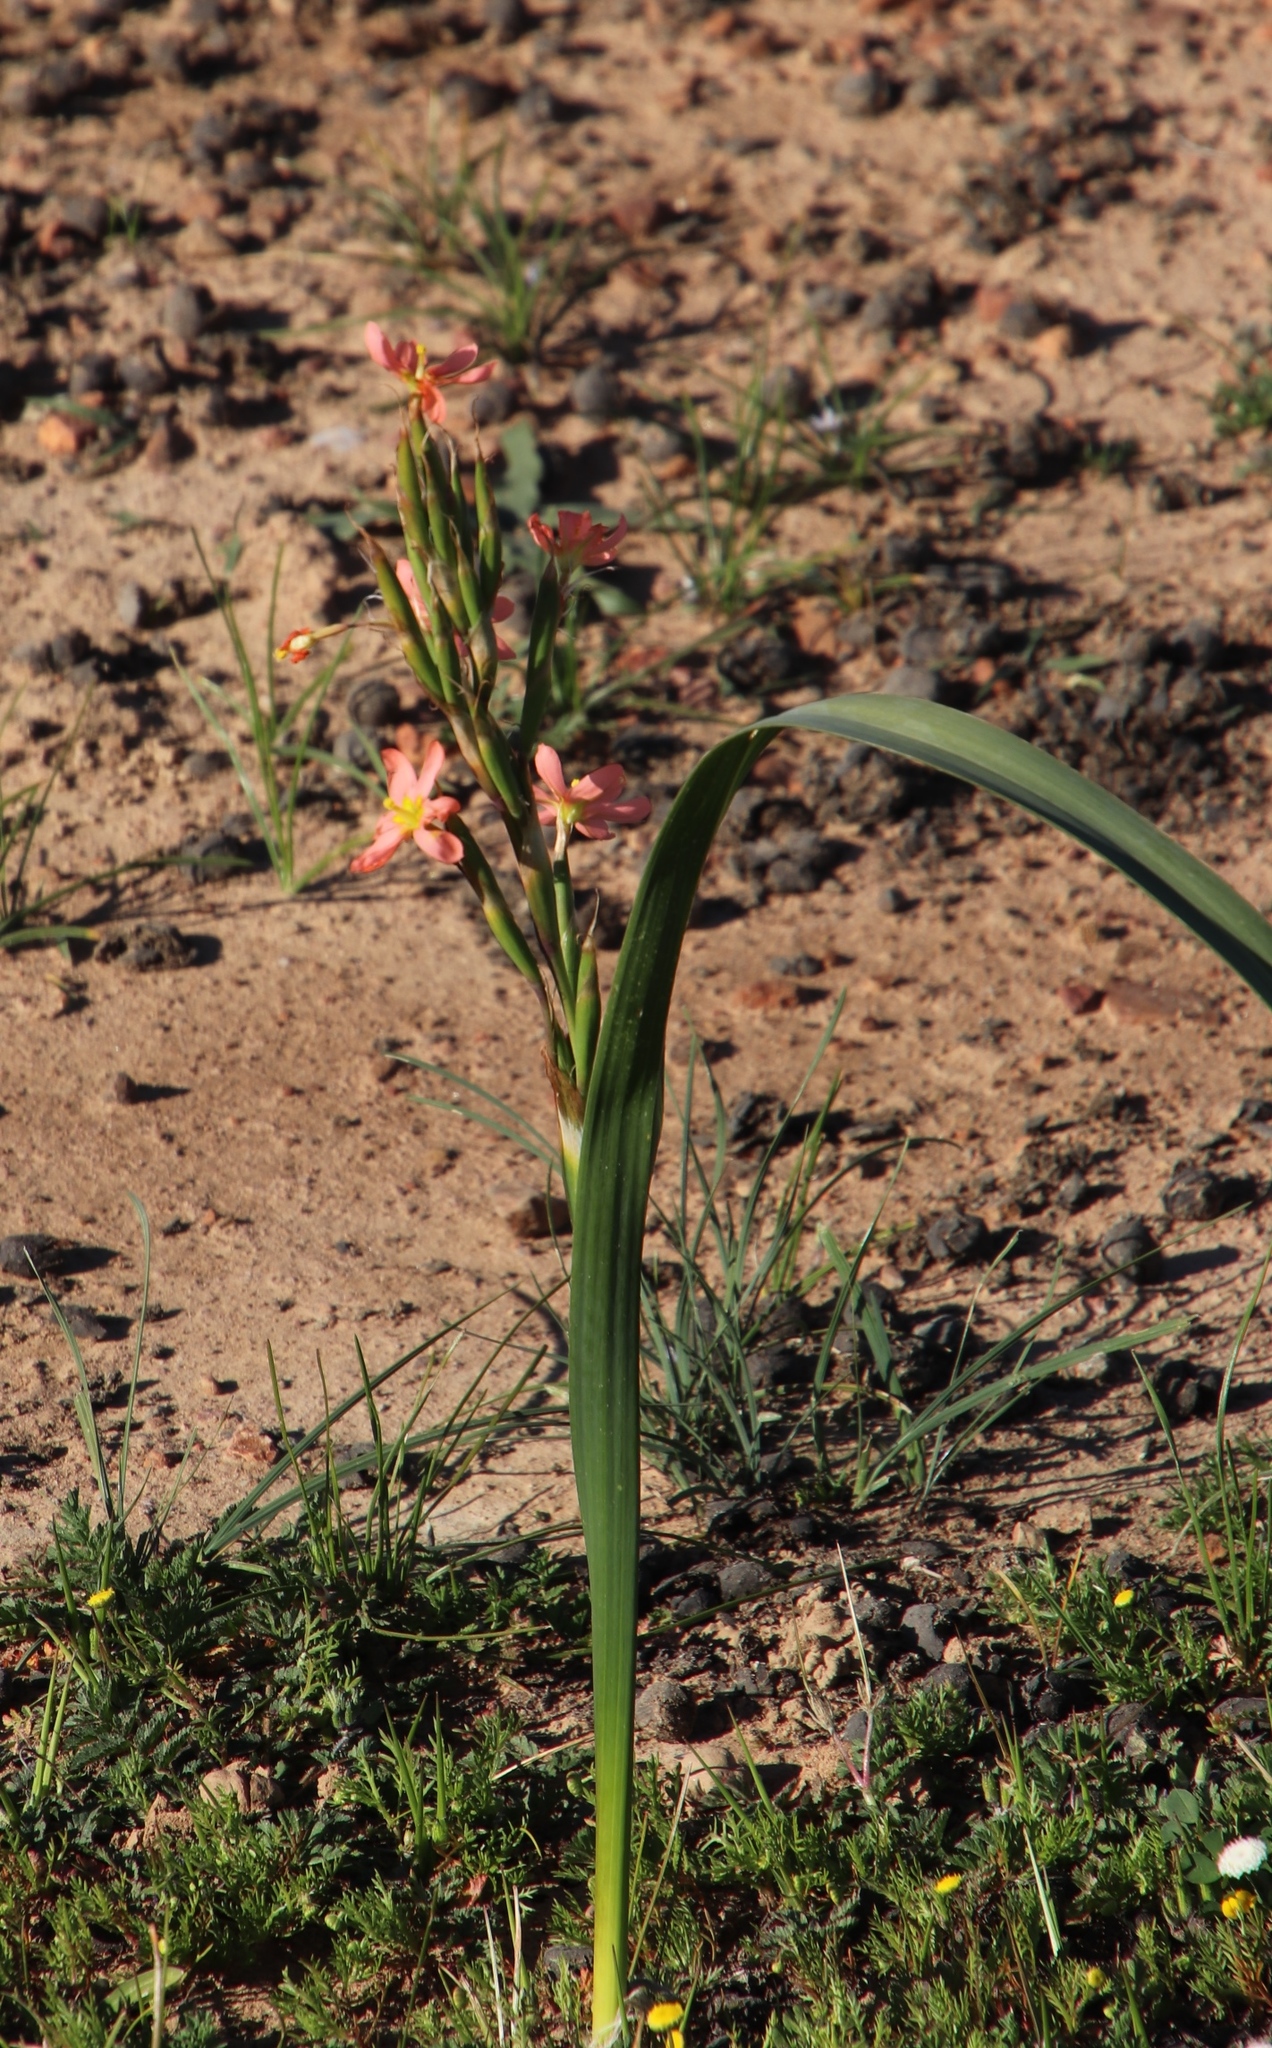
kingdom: Plantae
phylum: Tracheophyta
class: Liliopsida
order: Asparagales
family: Iridaceae
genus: Moraea
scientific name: Moraea miniata
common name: Two-leaf cape-tulip
